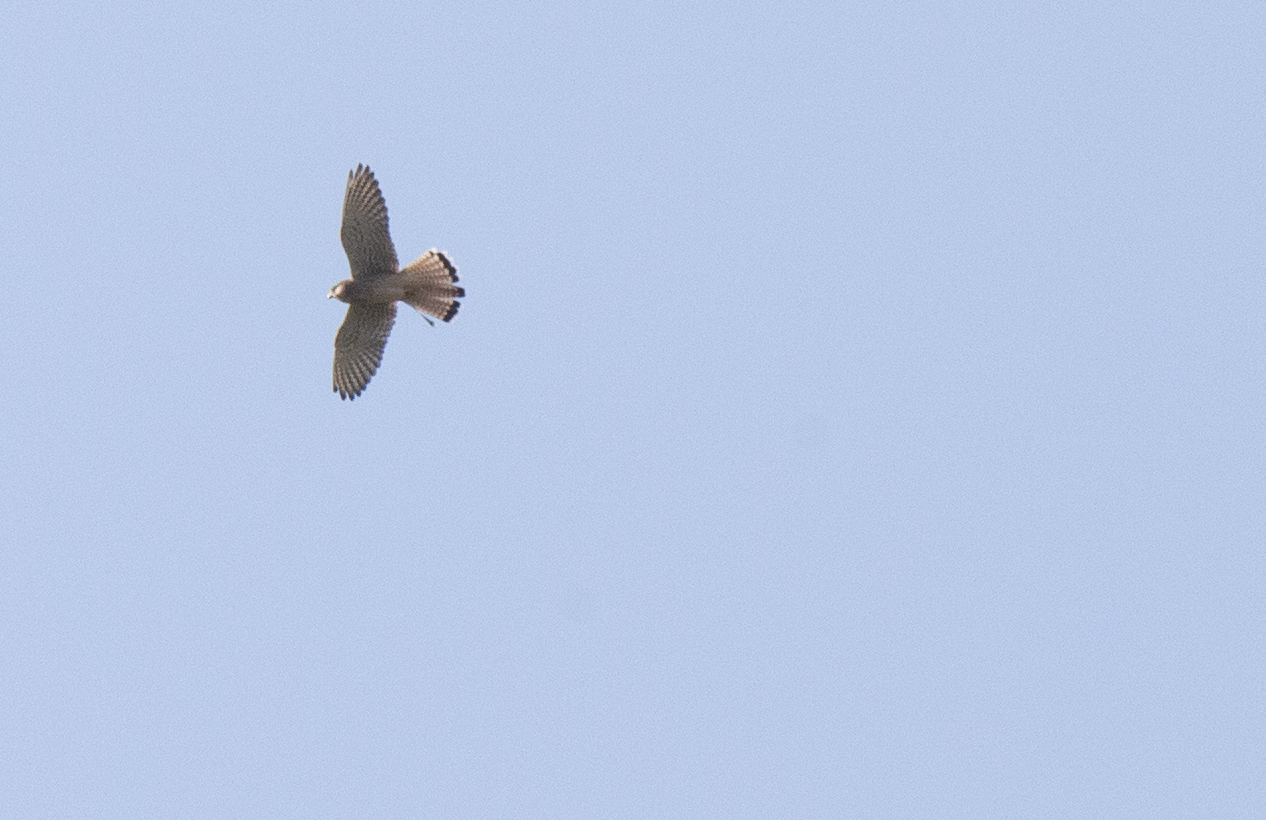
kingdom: Animalia
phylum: Chordata
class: Aves
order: Falconiformes
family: Falconidae
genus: Falco
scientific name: Falco tinnunculus
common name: Common kestrel
